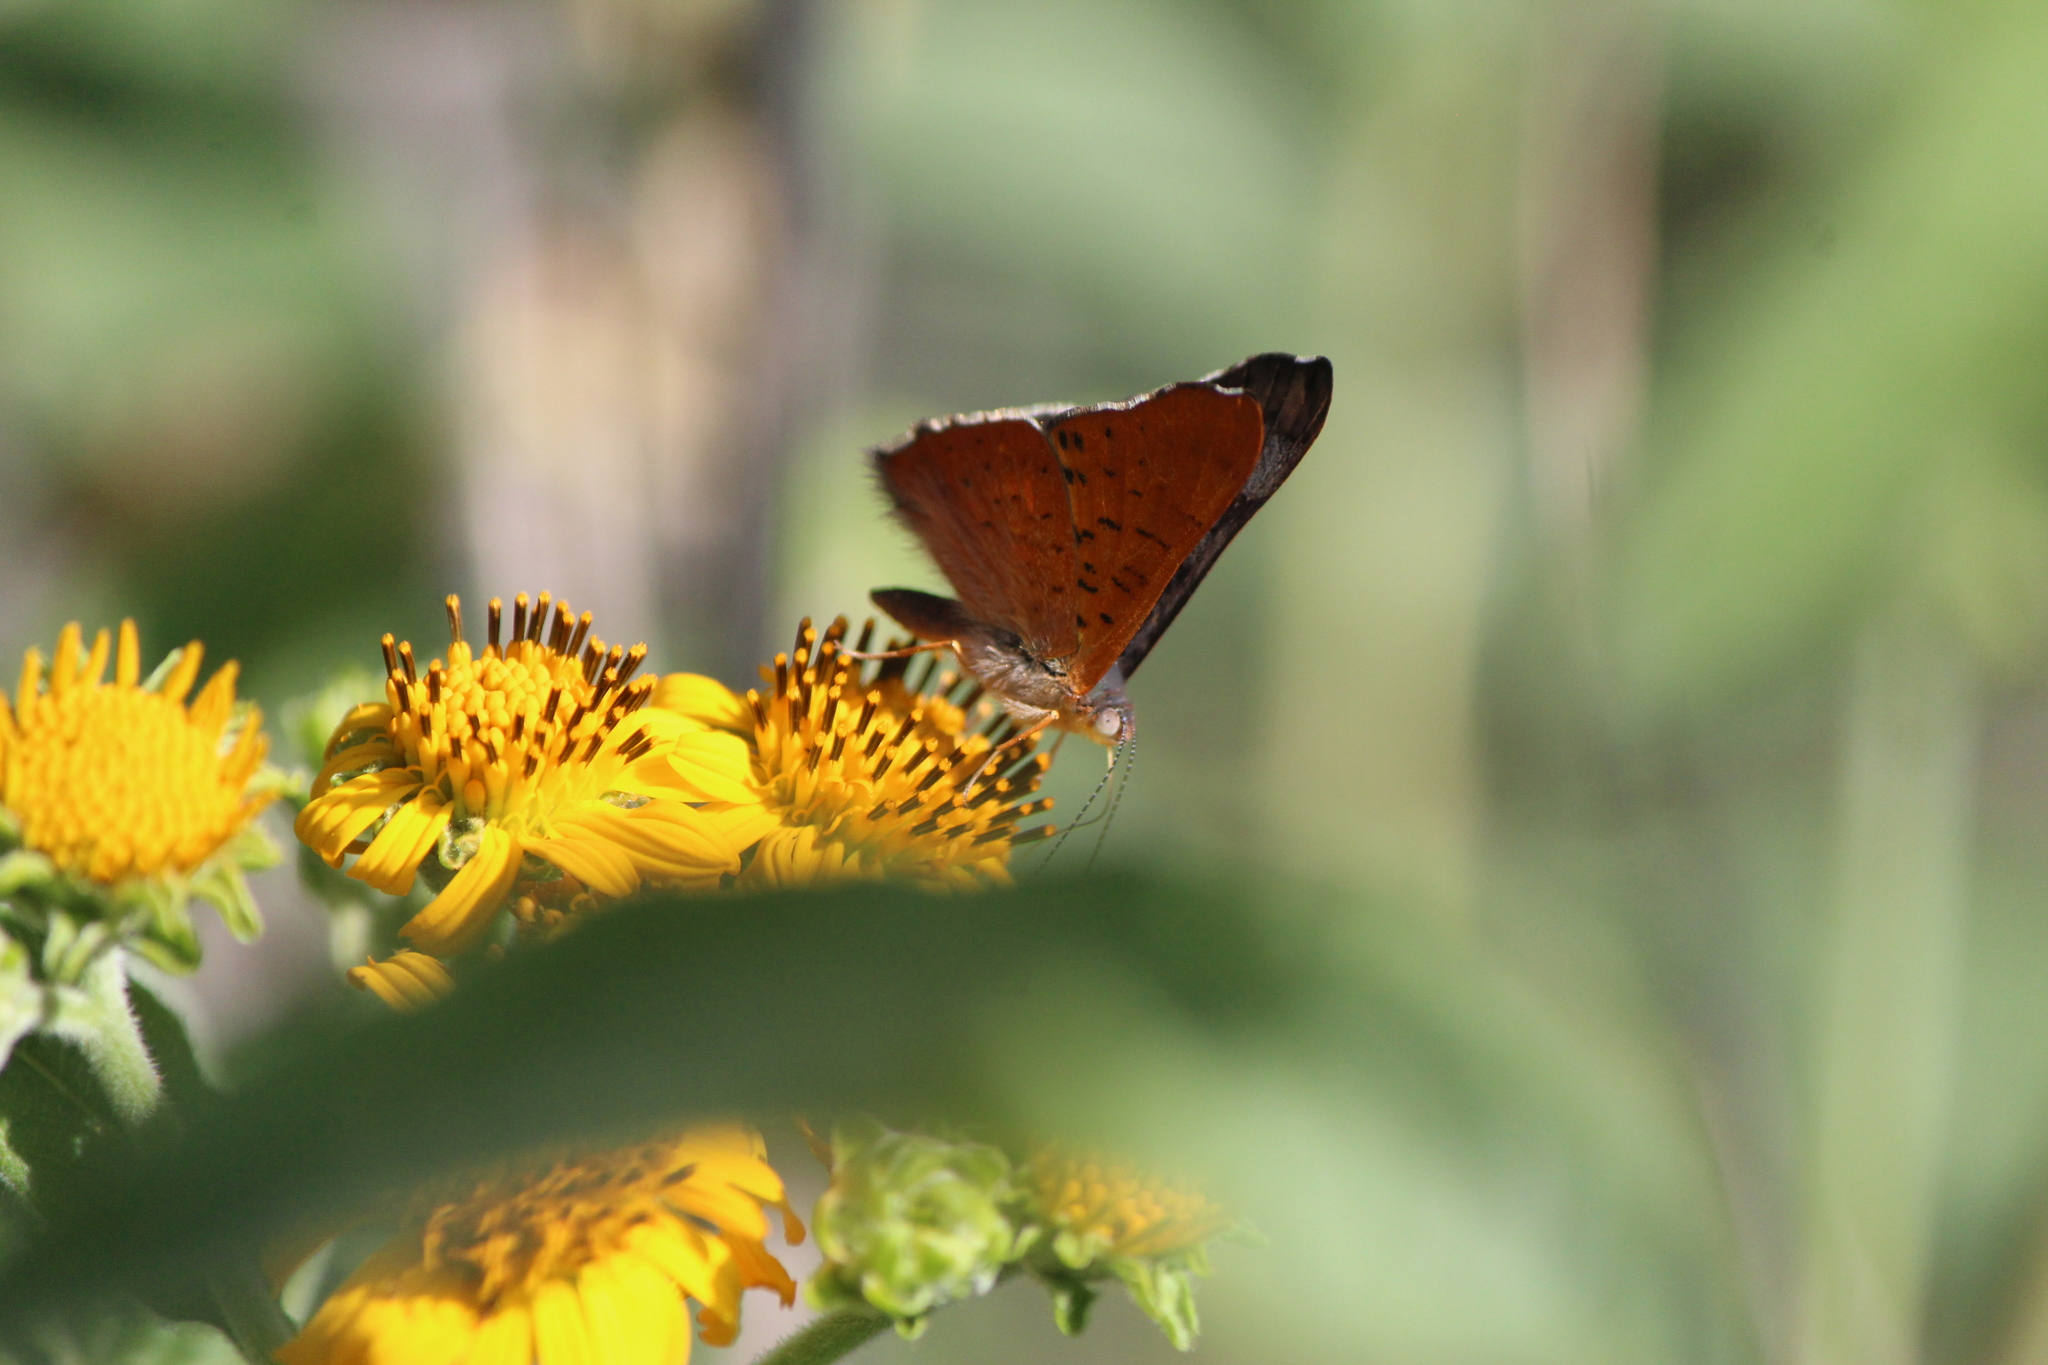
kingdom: Animalia
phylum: Arthropoda
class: Insecta
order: Lepidoptera
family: Riodinidae
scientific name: Riodinidae
